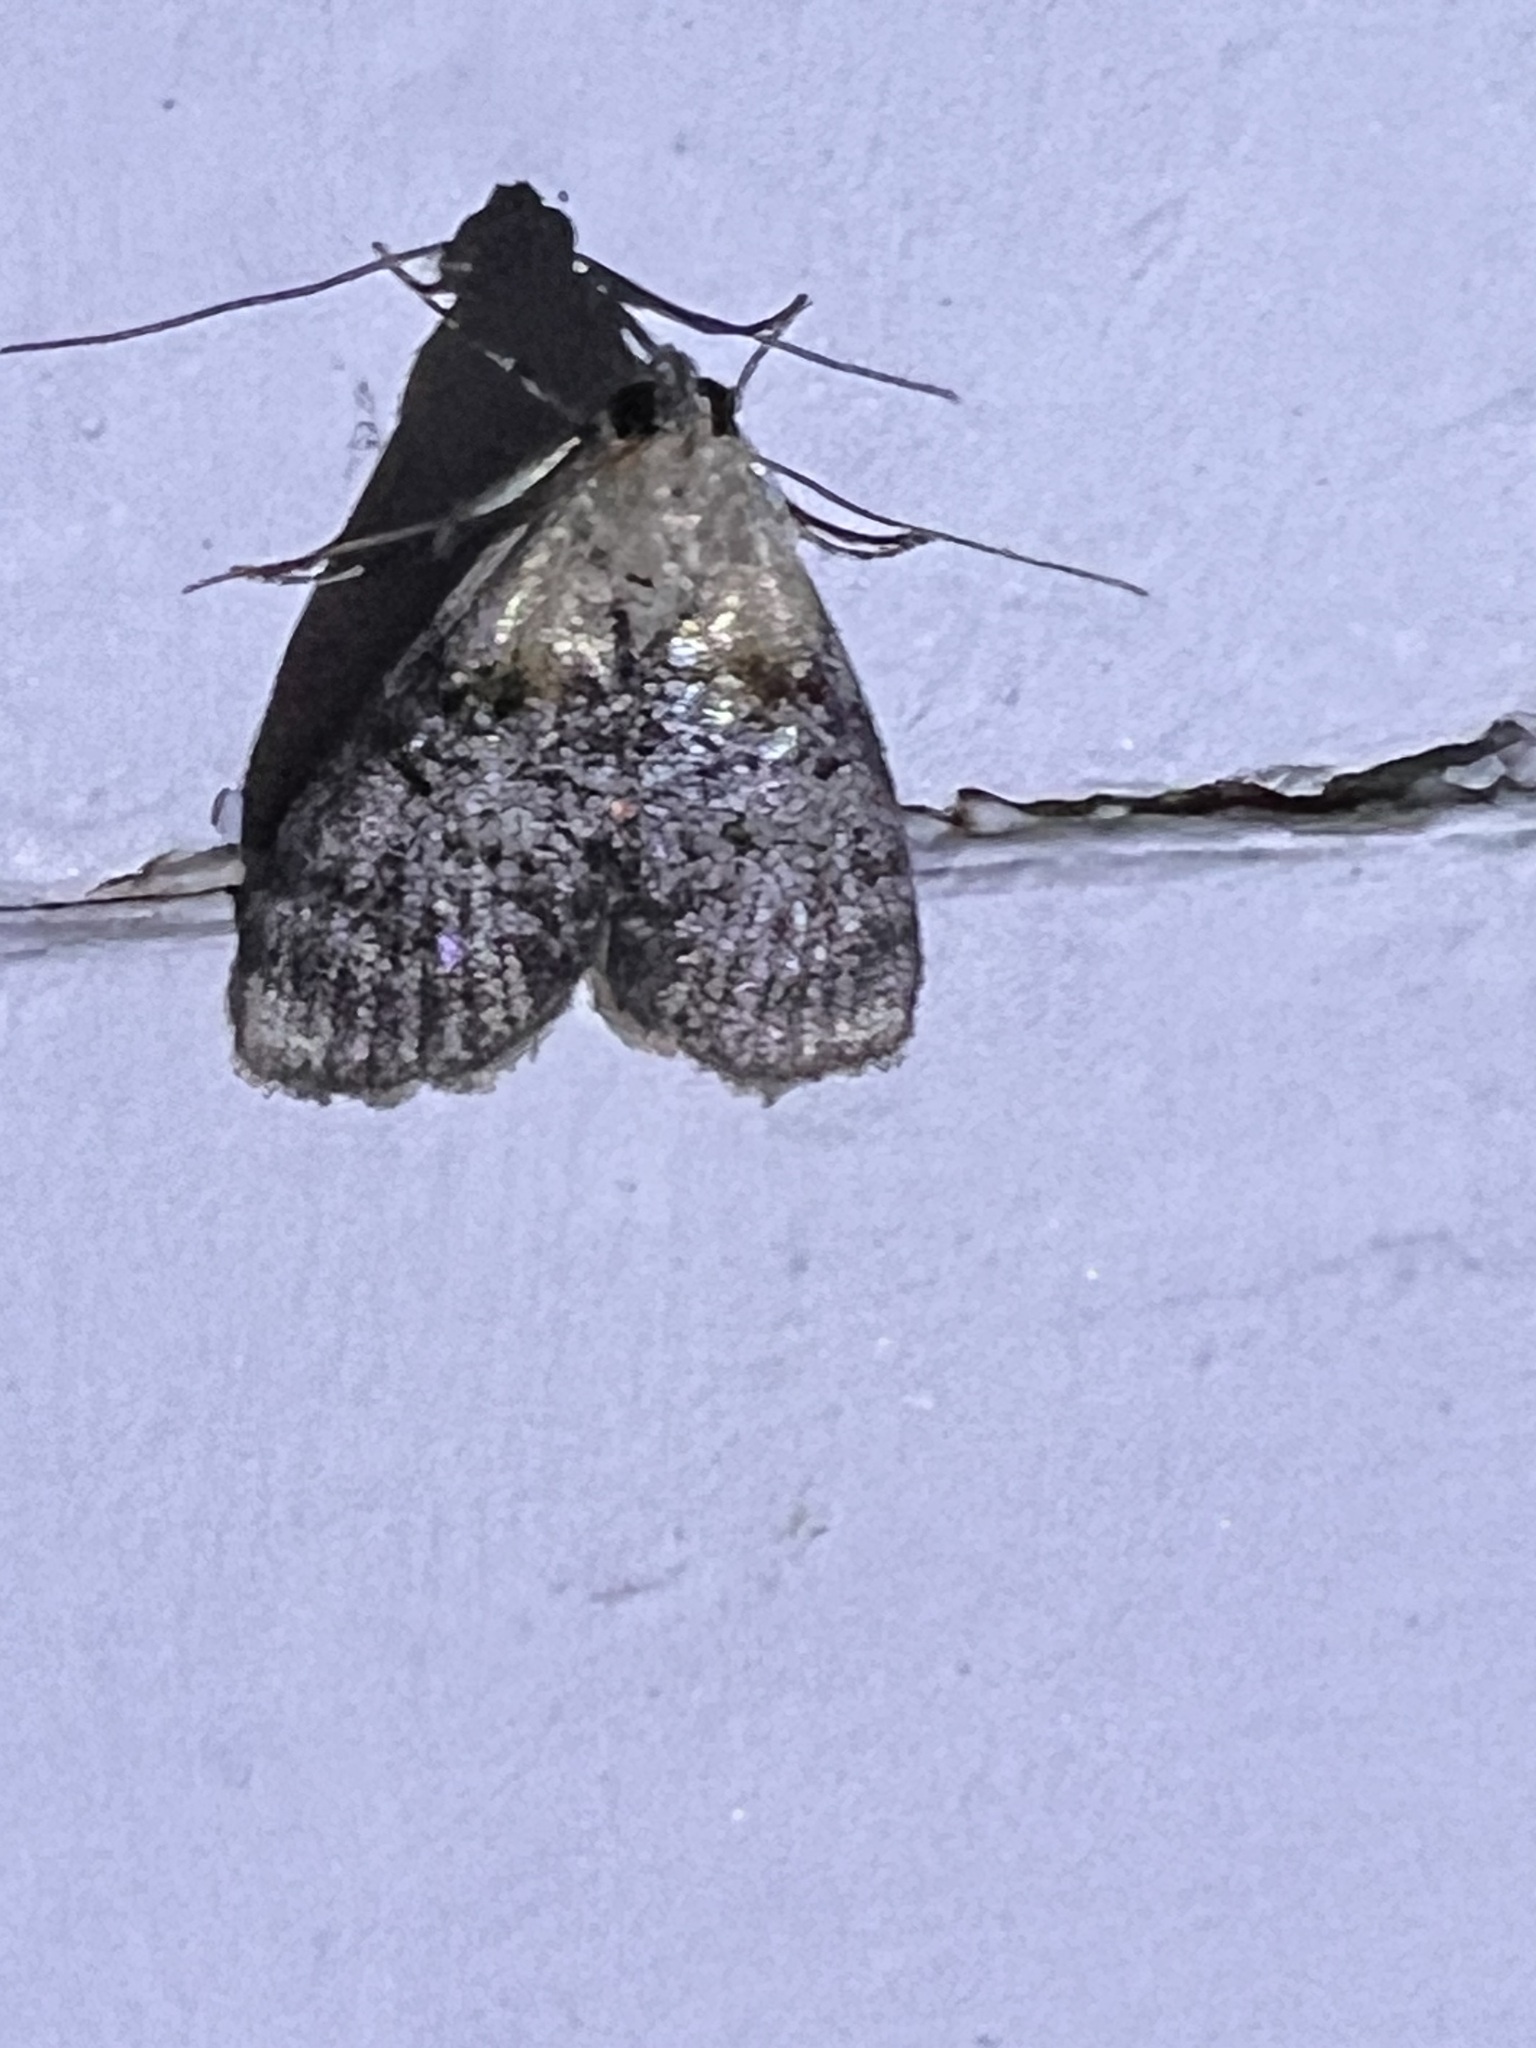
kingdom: Animalia
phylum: Arthropoda
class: Insecta
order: Lepidoptera
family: Pyralidae
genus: Pococera
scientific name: Pococera expandens
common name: Striped oak webworm moth
